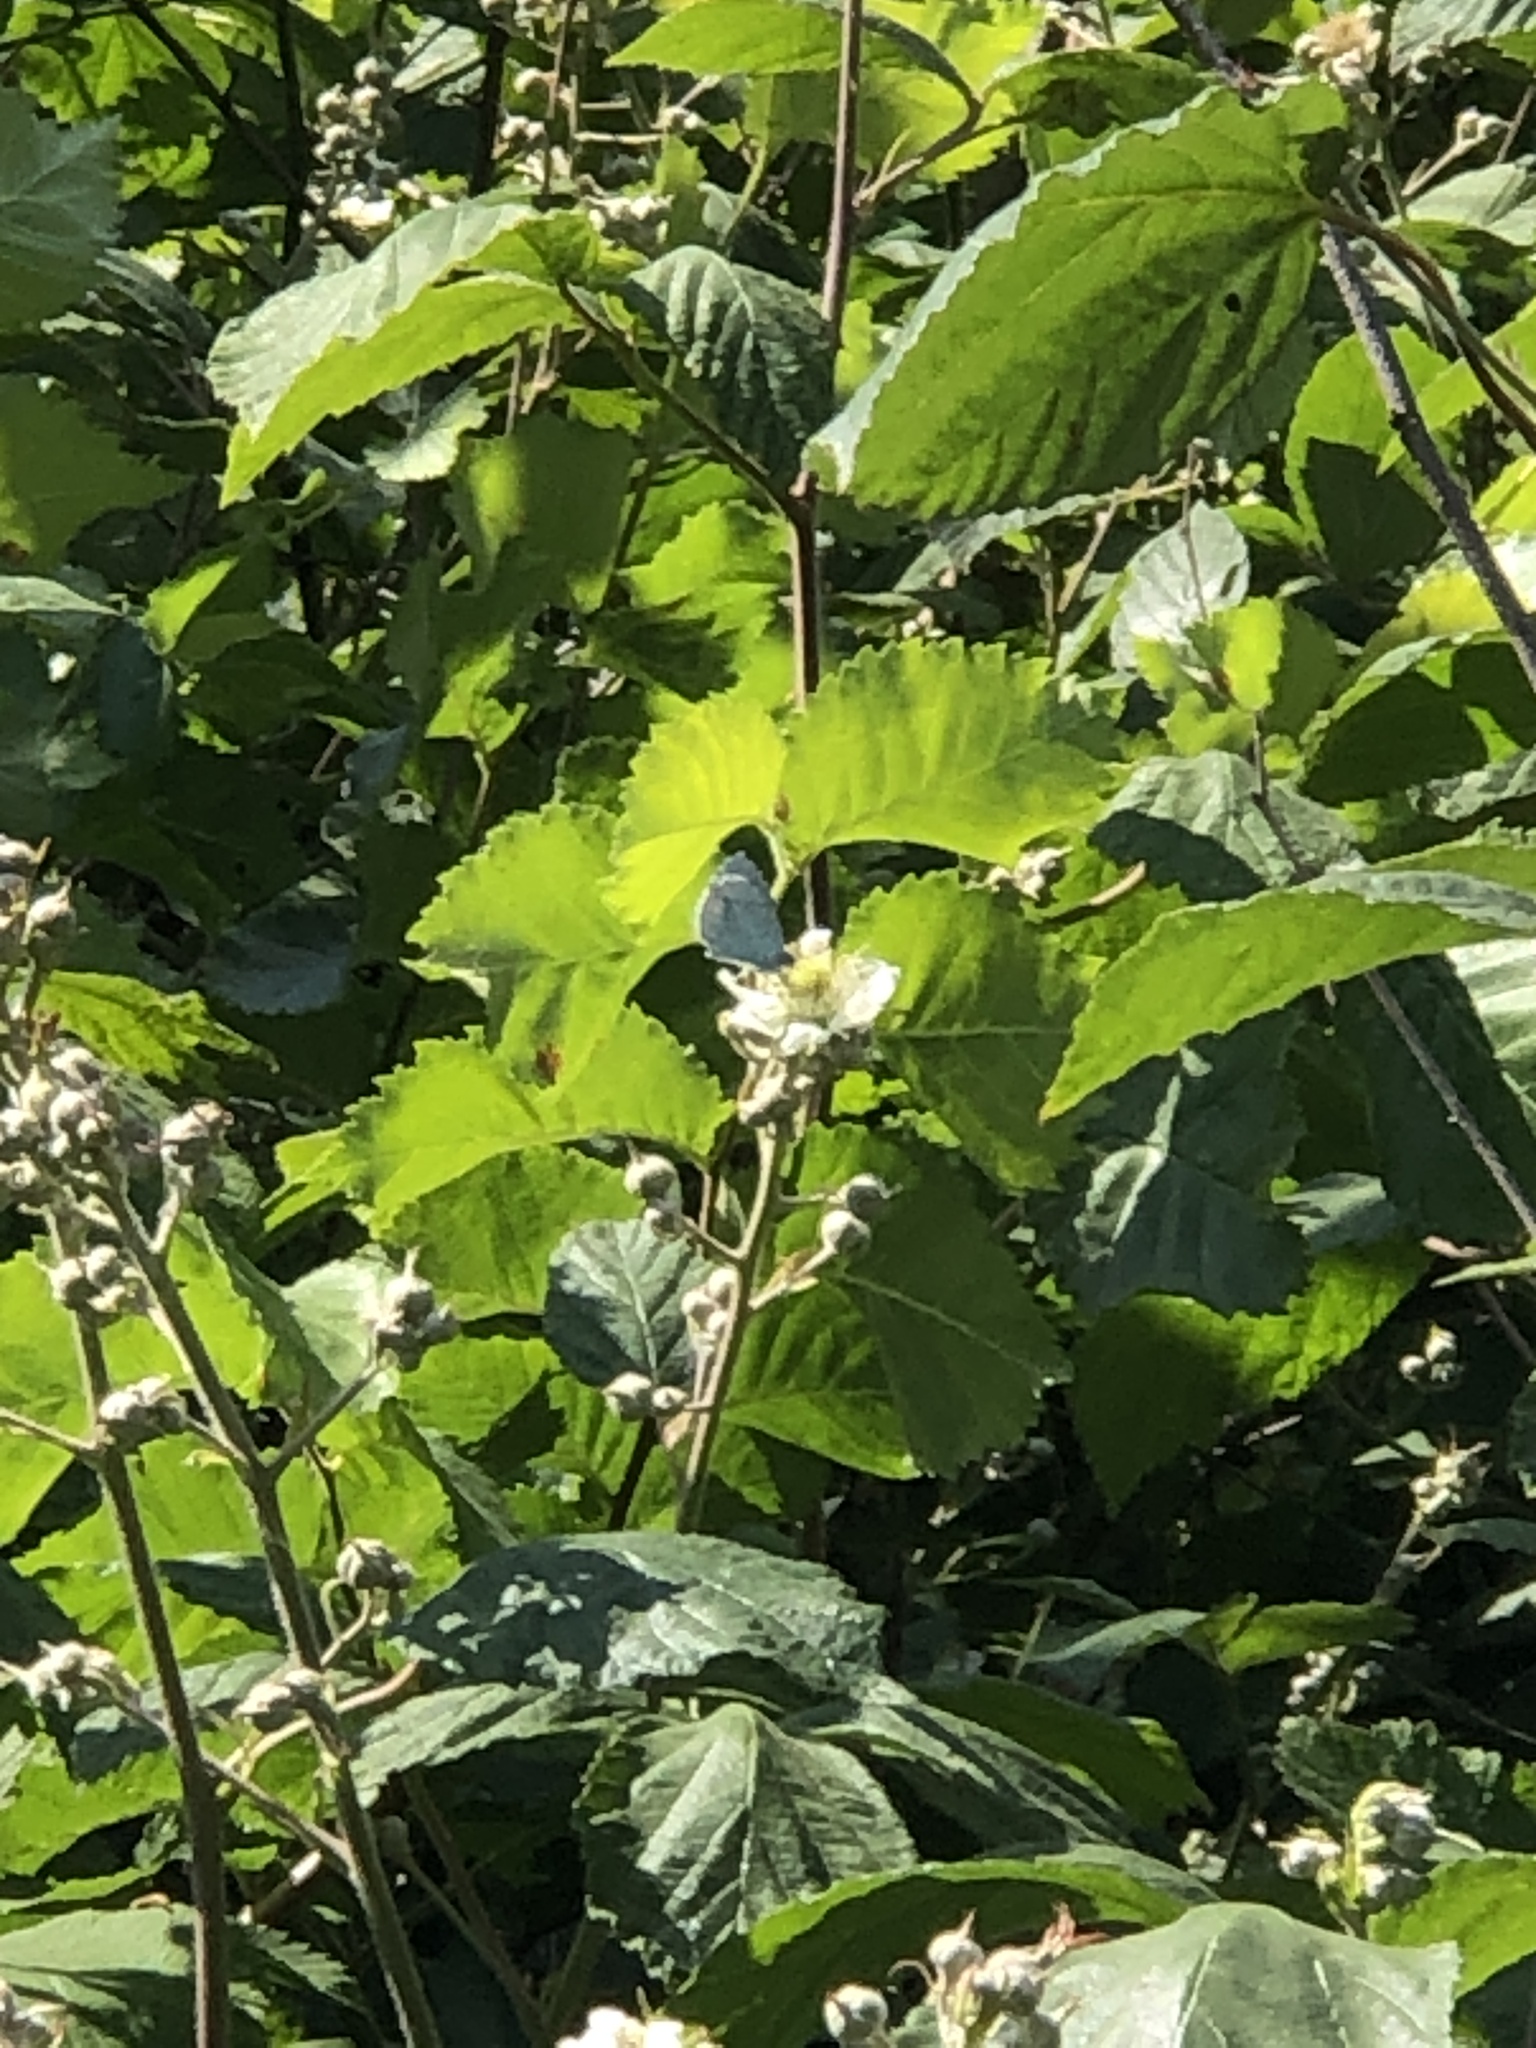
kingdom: Animalia
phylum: Arthropoda
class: Insecta
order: Lepidoptera
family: Lycaenidae
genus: Celastrina
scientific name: Celastrina argiolus
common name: Holly blue
